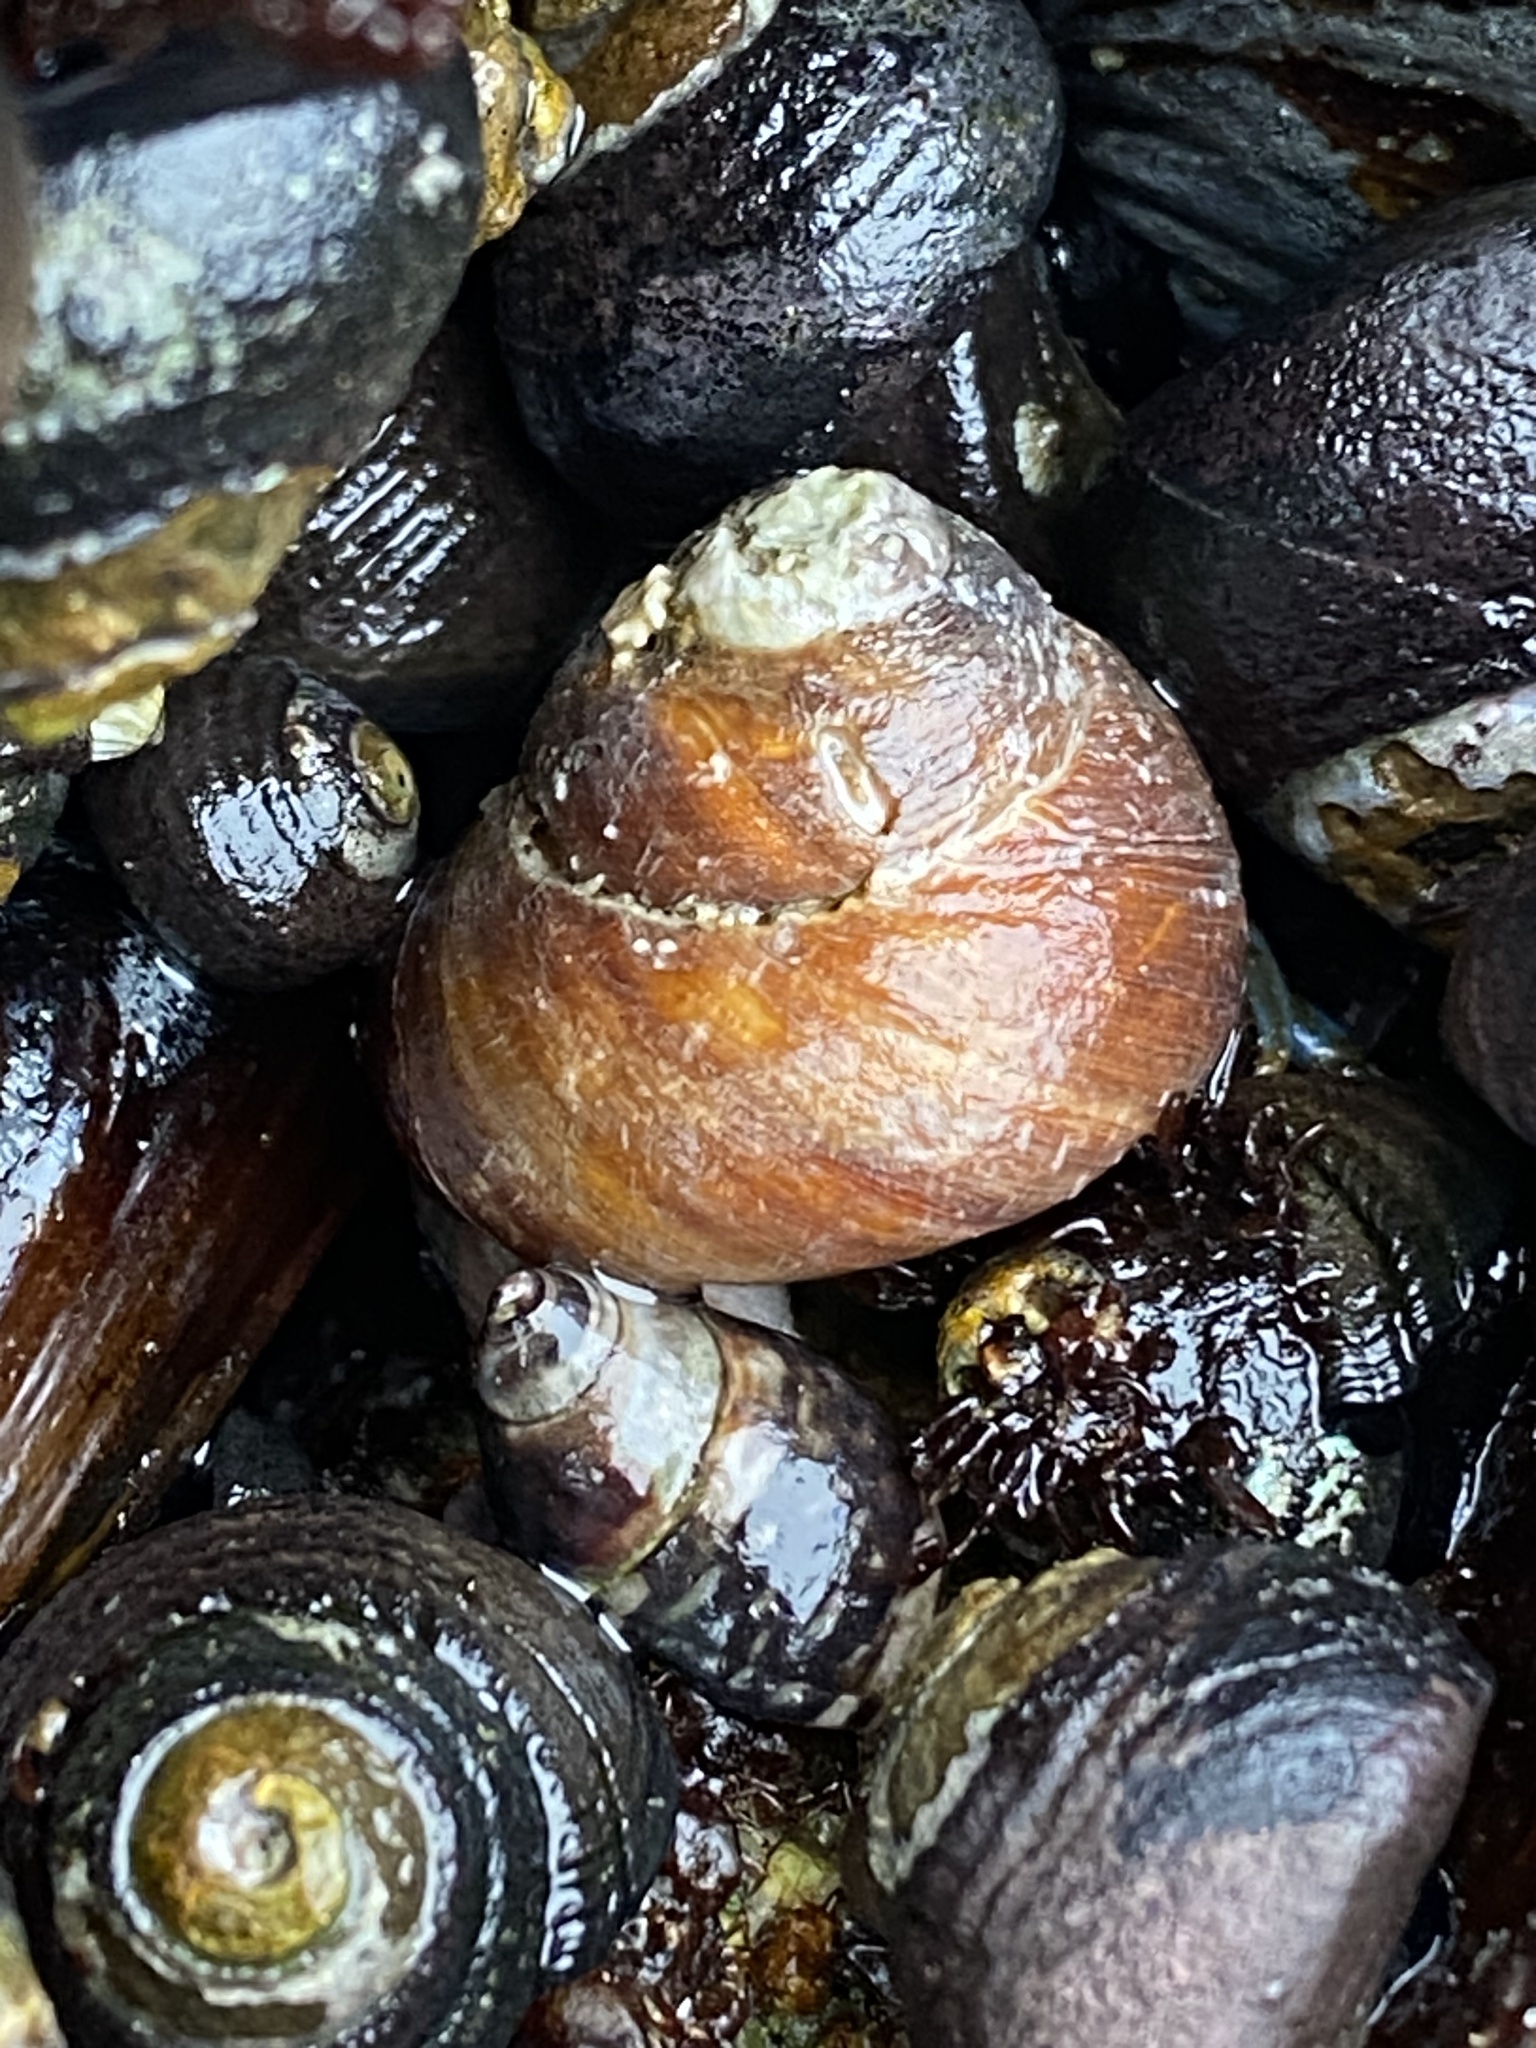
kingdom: Animalia
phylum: Mollusca
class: Gastropoda
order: Trochida
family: Tegulidae
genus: Tegula
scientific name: Tegula brunnea
